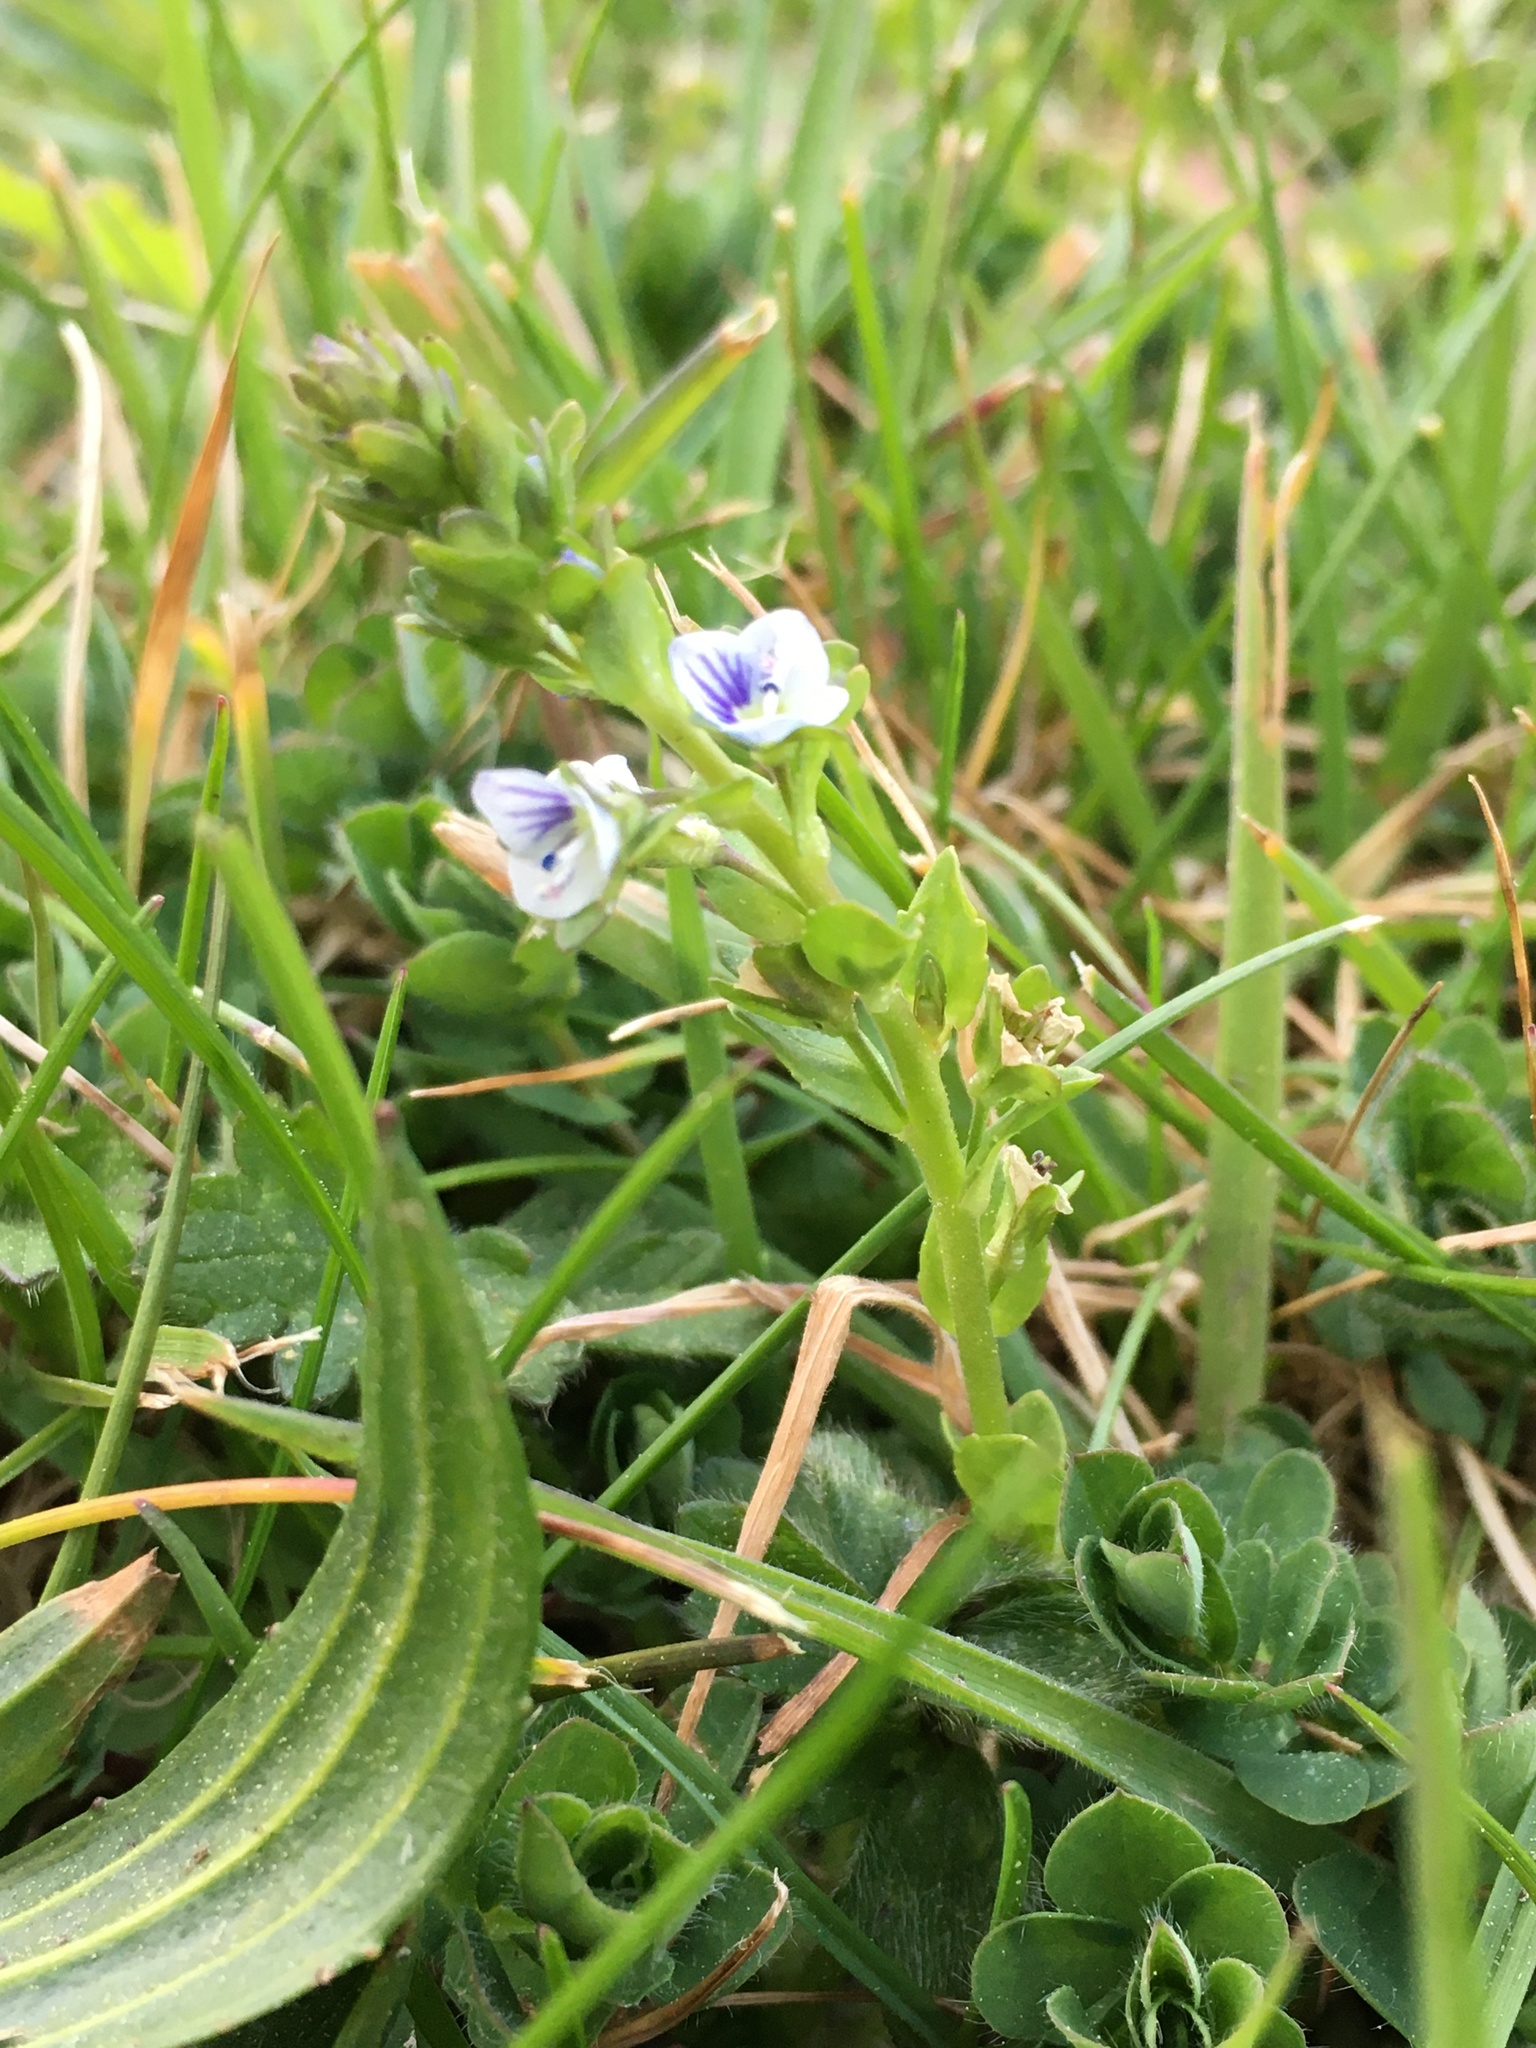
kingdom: Plantae
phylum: Tracheophyta
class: Magnoliopsida
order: Lamiales
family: Plantaginaceae
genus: Veronica
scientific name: Veronica serpyllifolia
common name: Thyme-leaved speedwell
